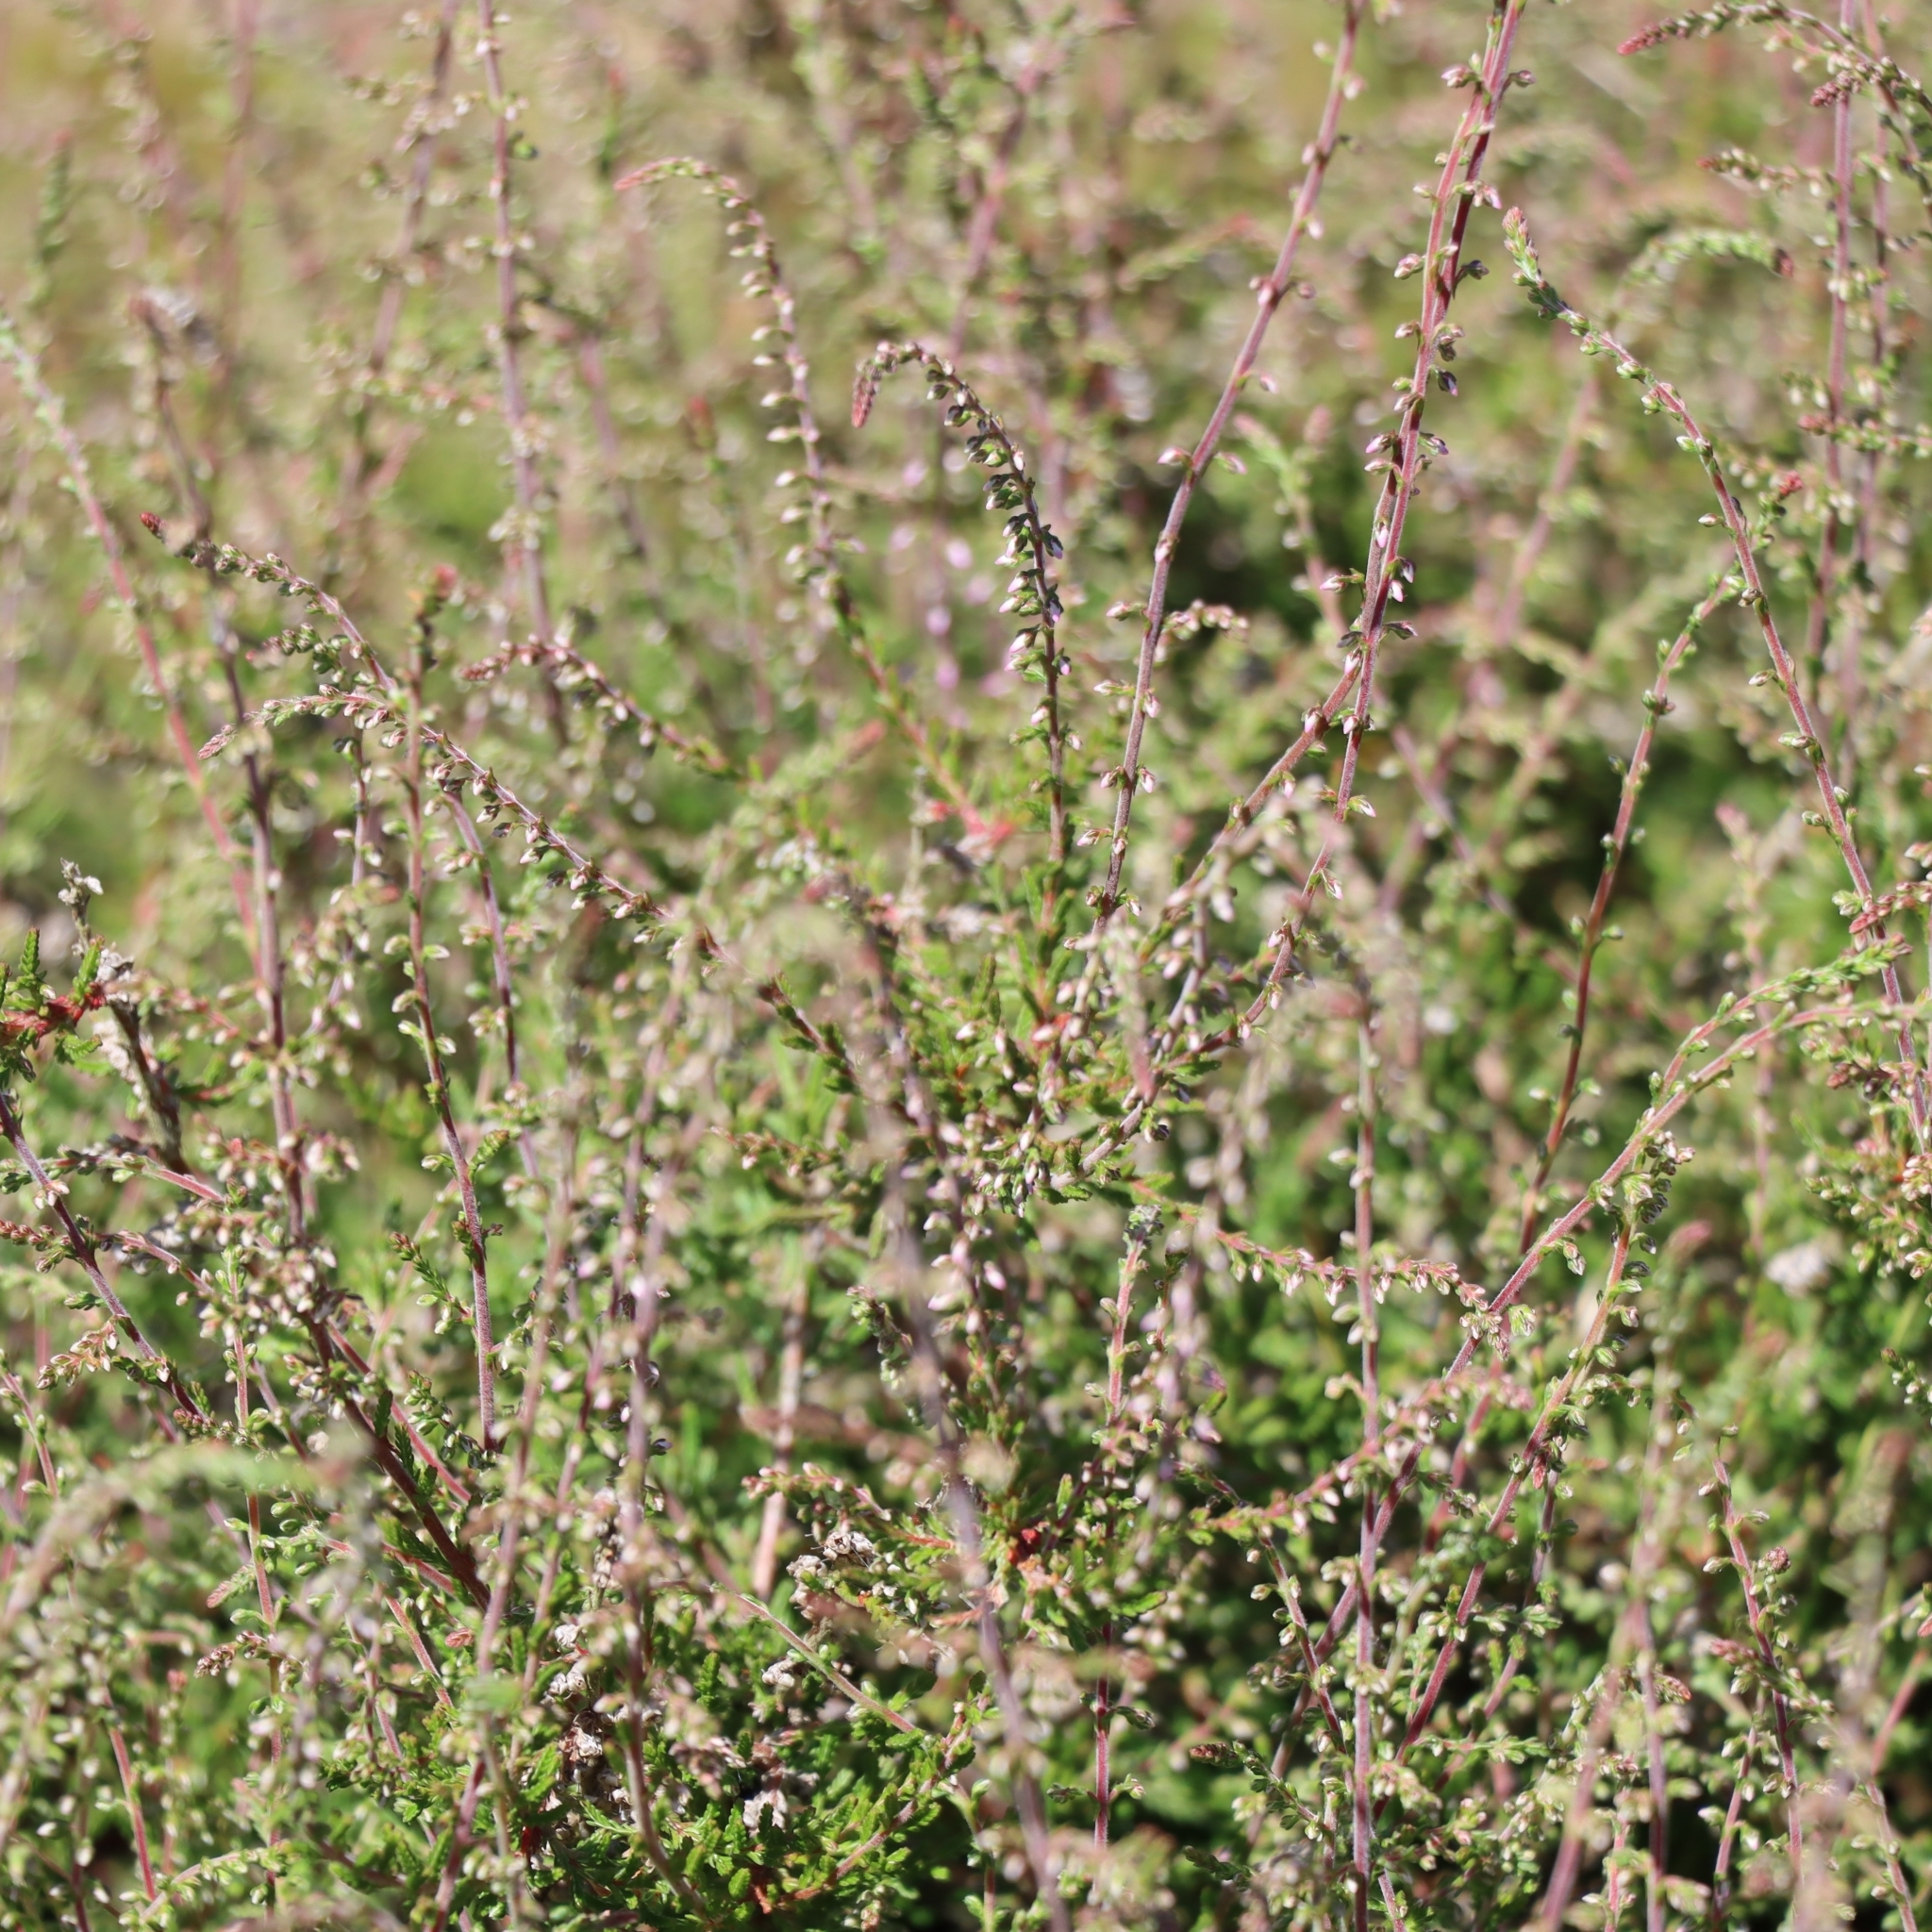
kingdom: Plantae
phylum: Tracheophyta
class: Magnoliopsida
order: Ericales
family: Ericaceae
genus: Calluna
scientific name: Calluna vulgaris
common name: Heather
